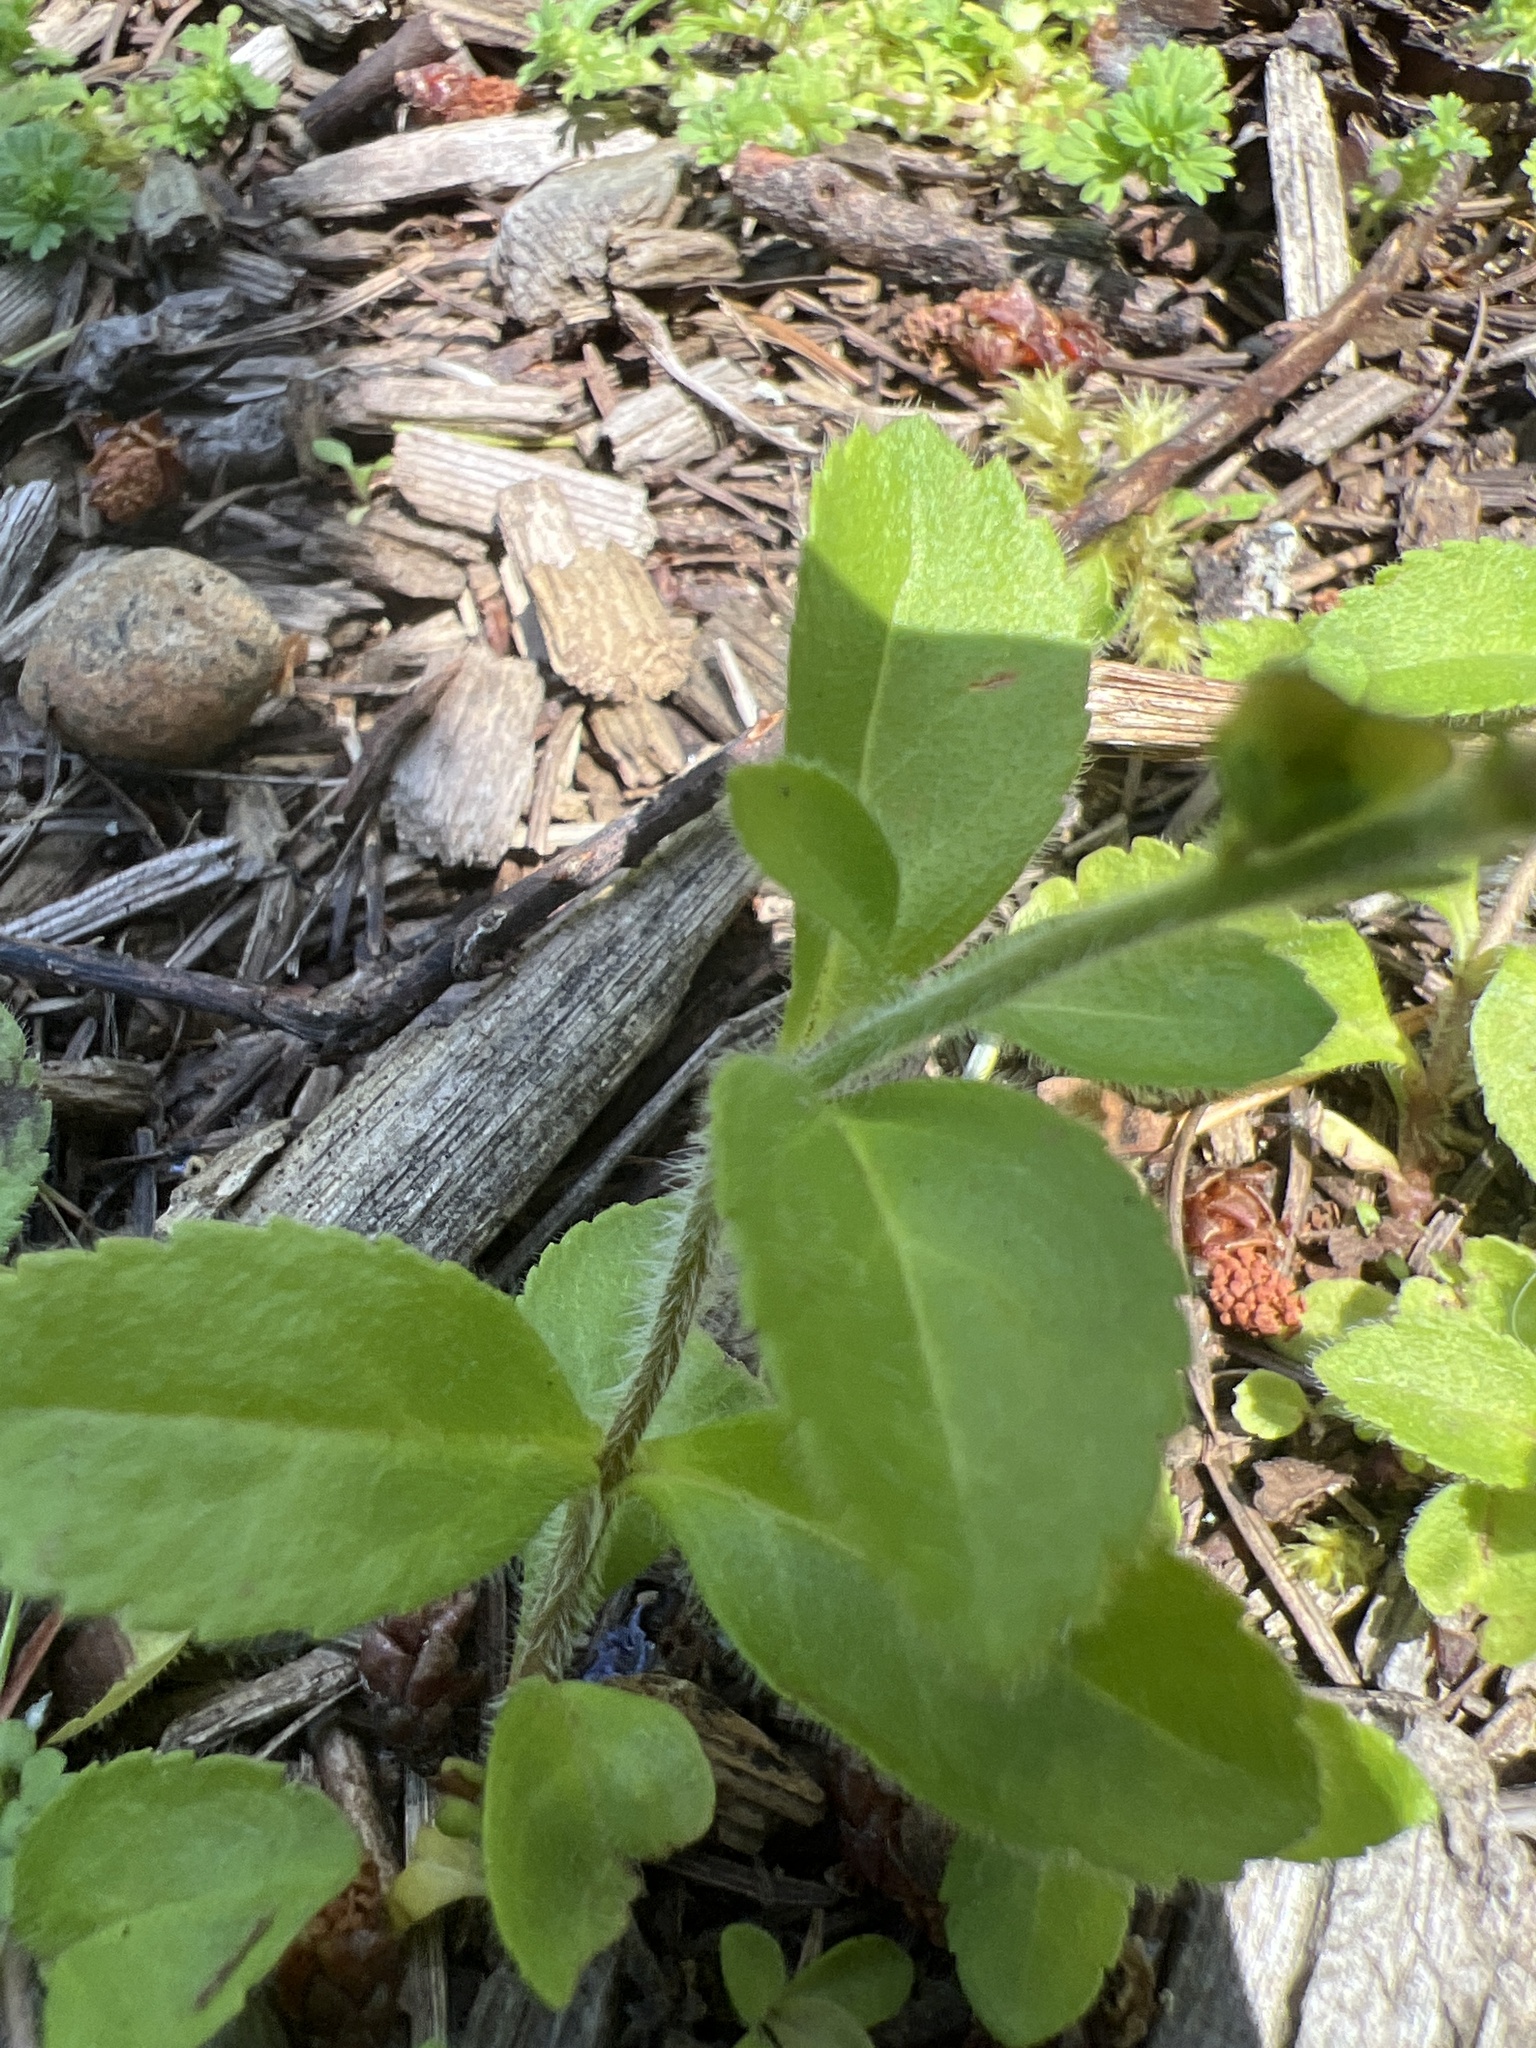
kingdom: Plantae
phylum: Tracheophyta
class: Magnoliopsida
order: Lamiales
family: Plantaginaceae
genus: Veronica
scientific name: Veronica officinalis
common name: Common speedwell
